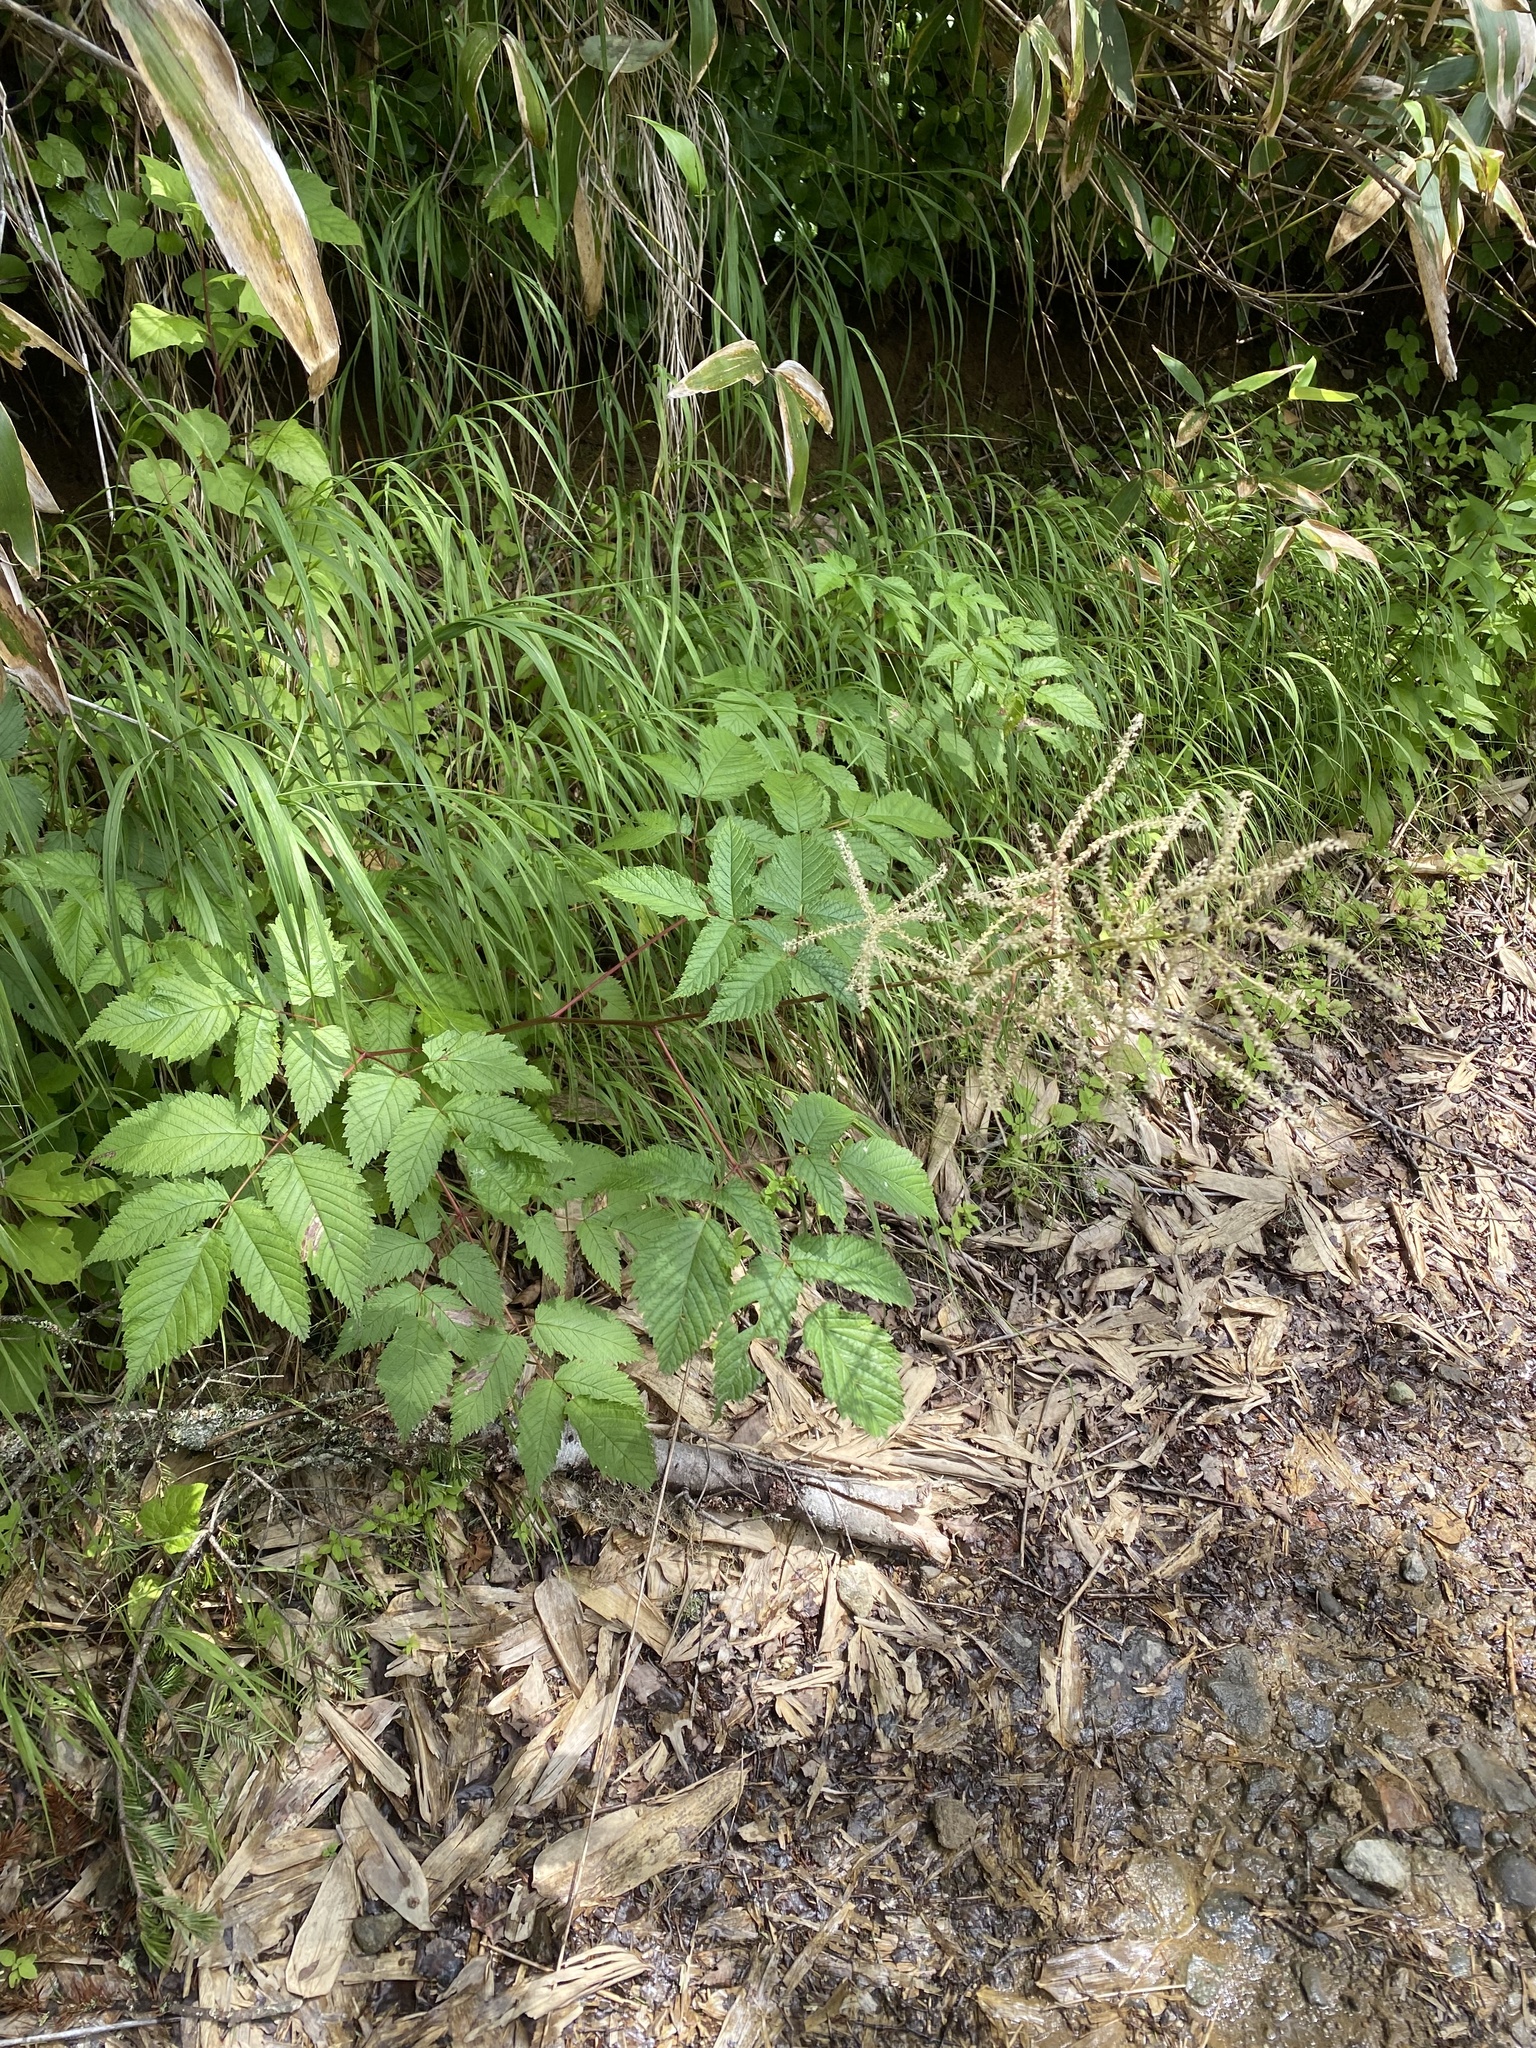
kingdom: Plantae
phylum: Tracheophyta
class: Magnoliopsida
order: Rosales
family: Rosaceae
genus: Aruncus
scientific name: Aruncus dioicus
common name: Buck's-beard
